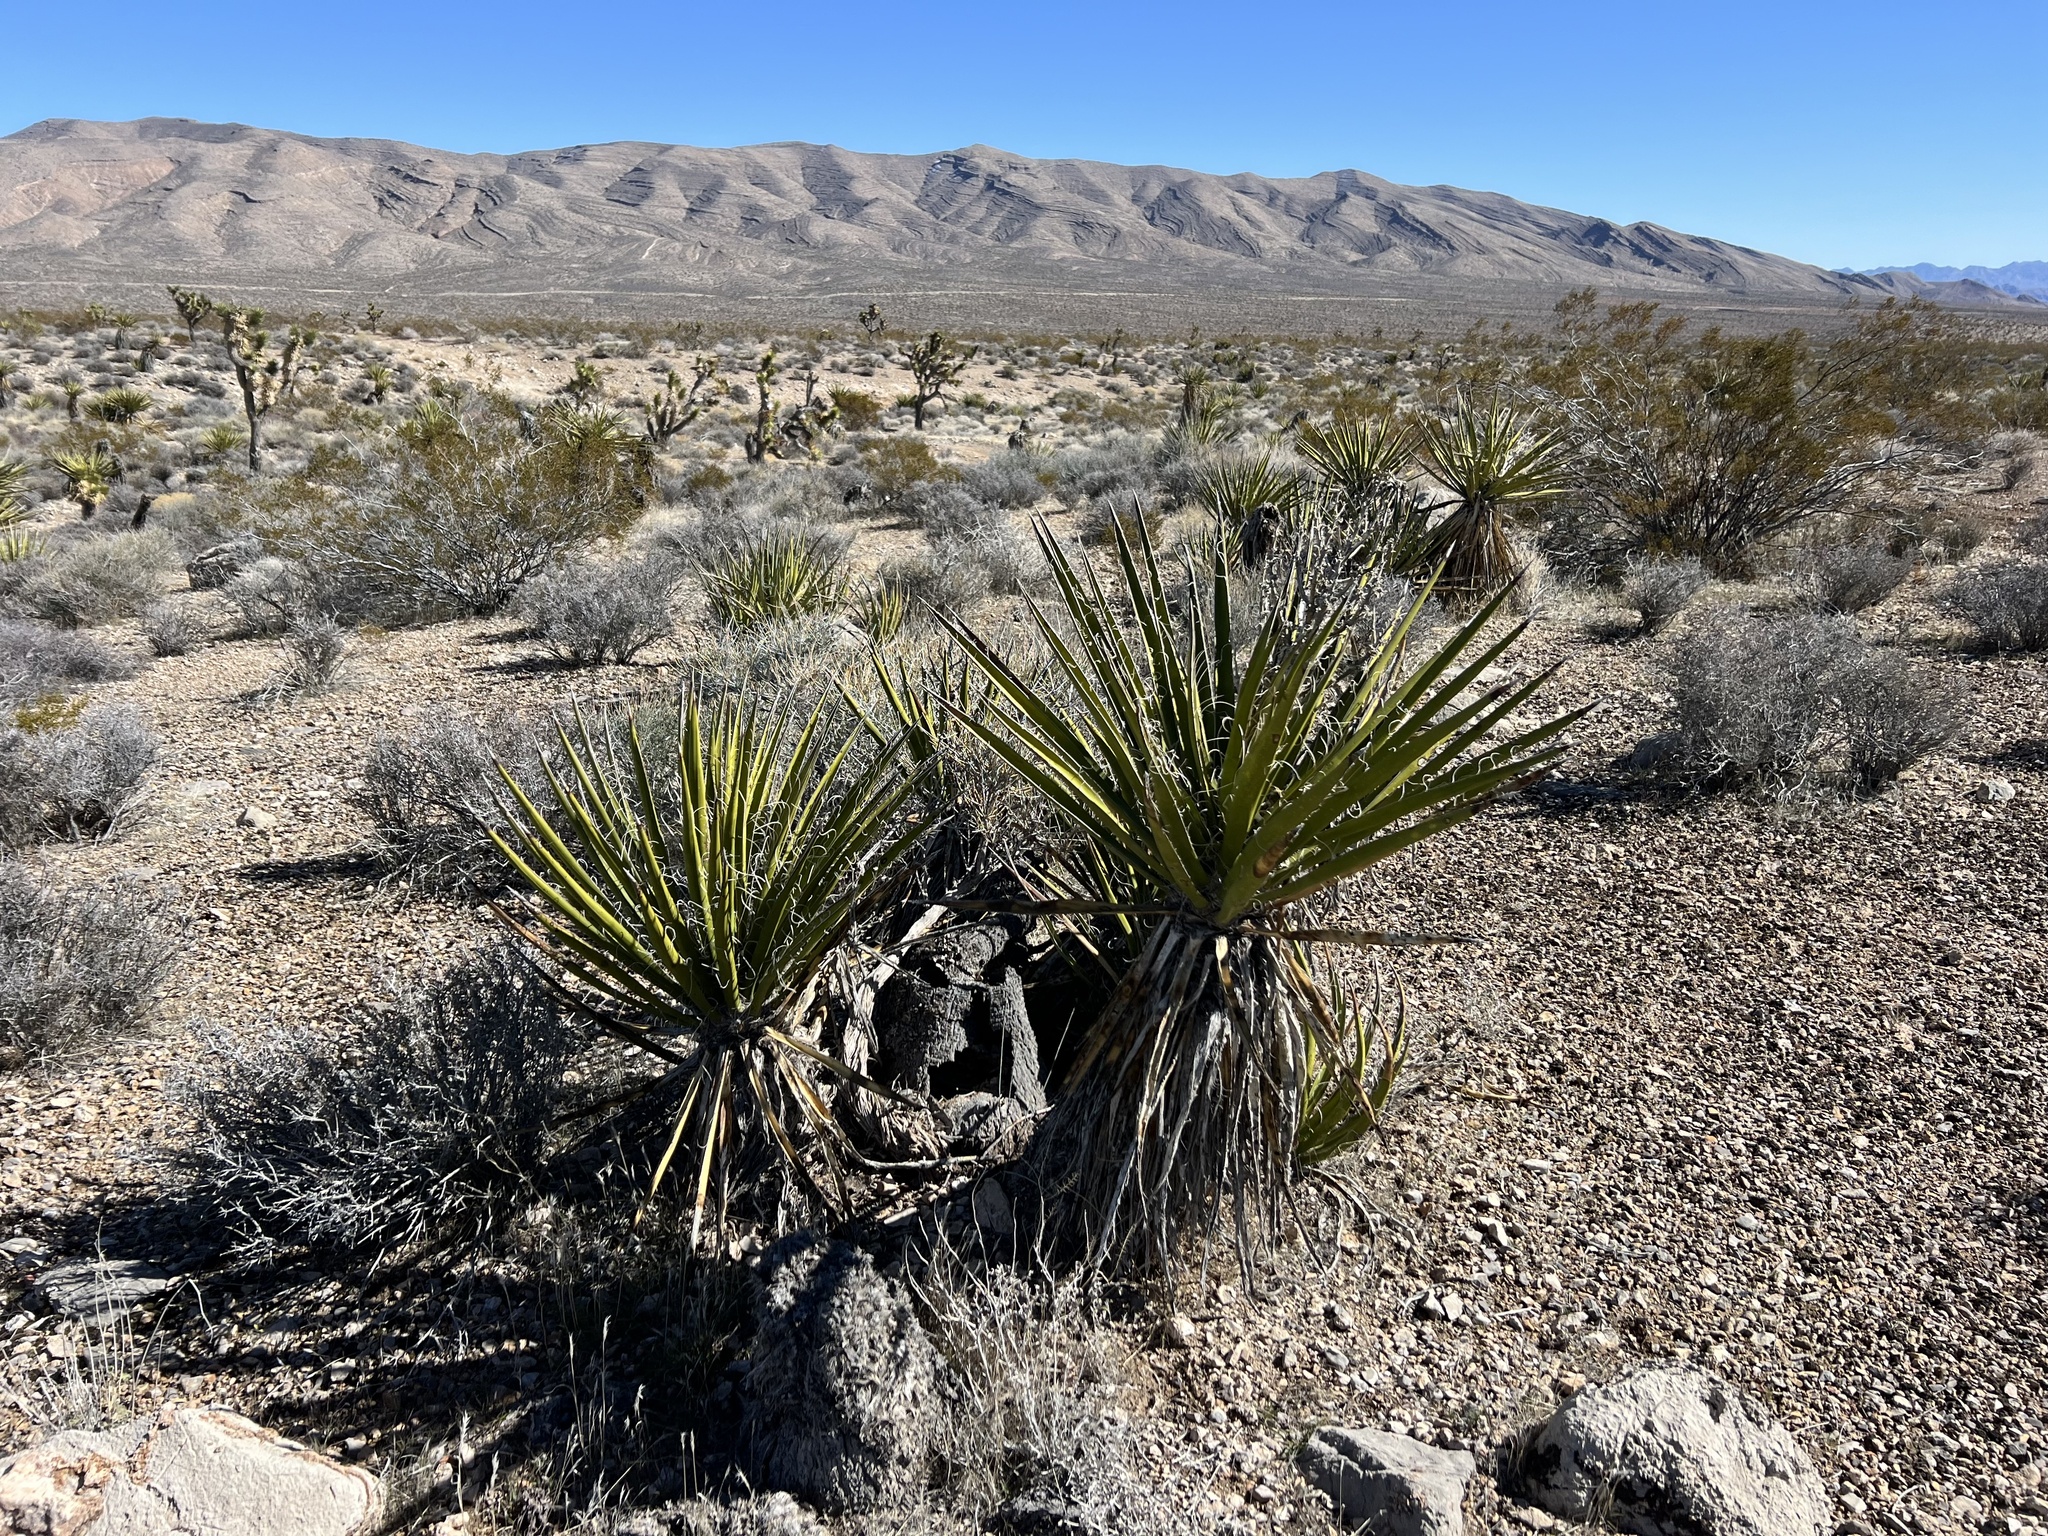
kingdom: Plantae
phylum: Tracheophyta
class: Liliopsida
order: Asparagales
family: Asparagaceae
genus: Yucca
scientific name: Yucca schidigera
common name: Mojave yucca
